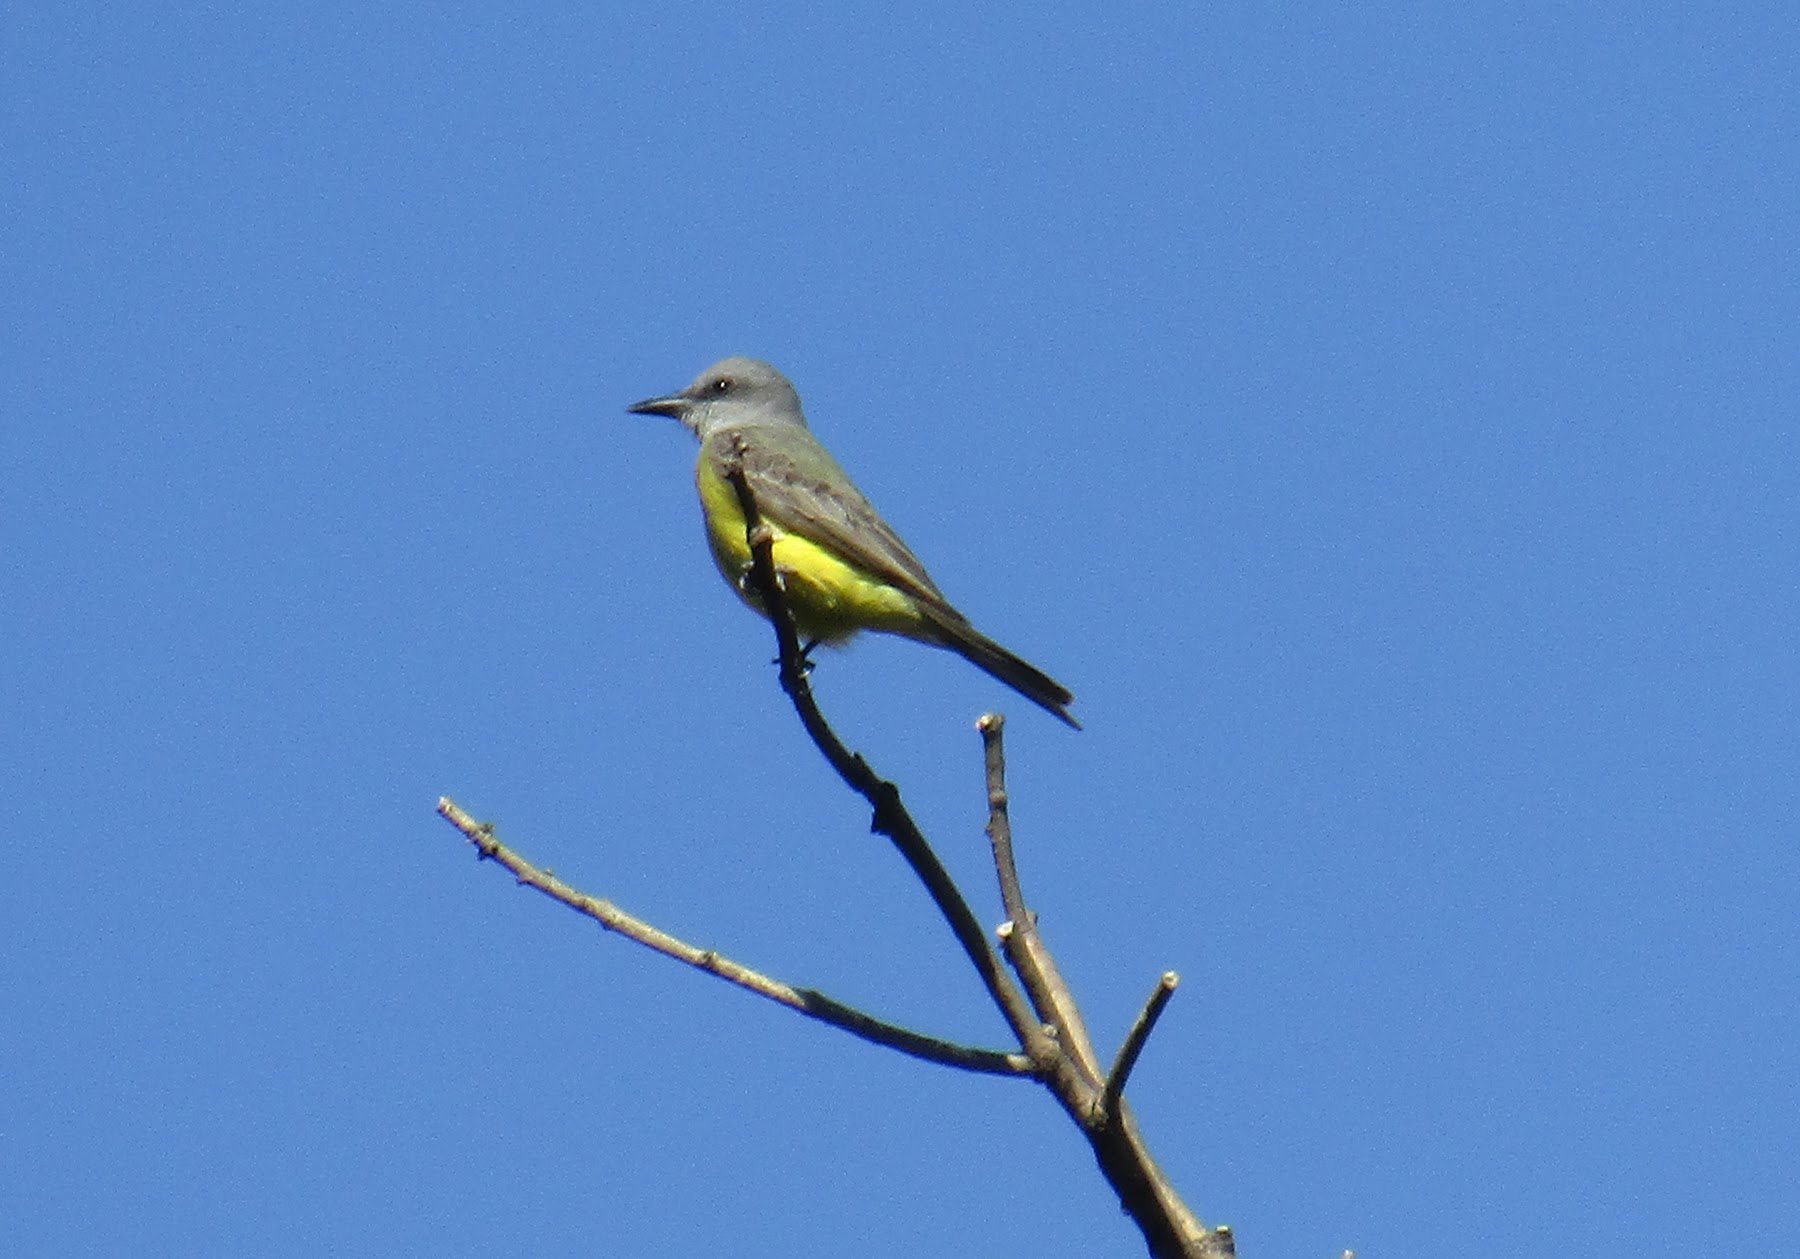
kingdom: Animalia
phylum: Chordata
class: Aves
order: Passeriformes
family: Tyrannidae
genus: Tyrannus
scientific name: Tyrannus melancholicus
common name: Tropical kingbird
